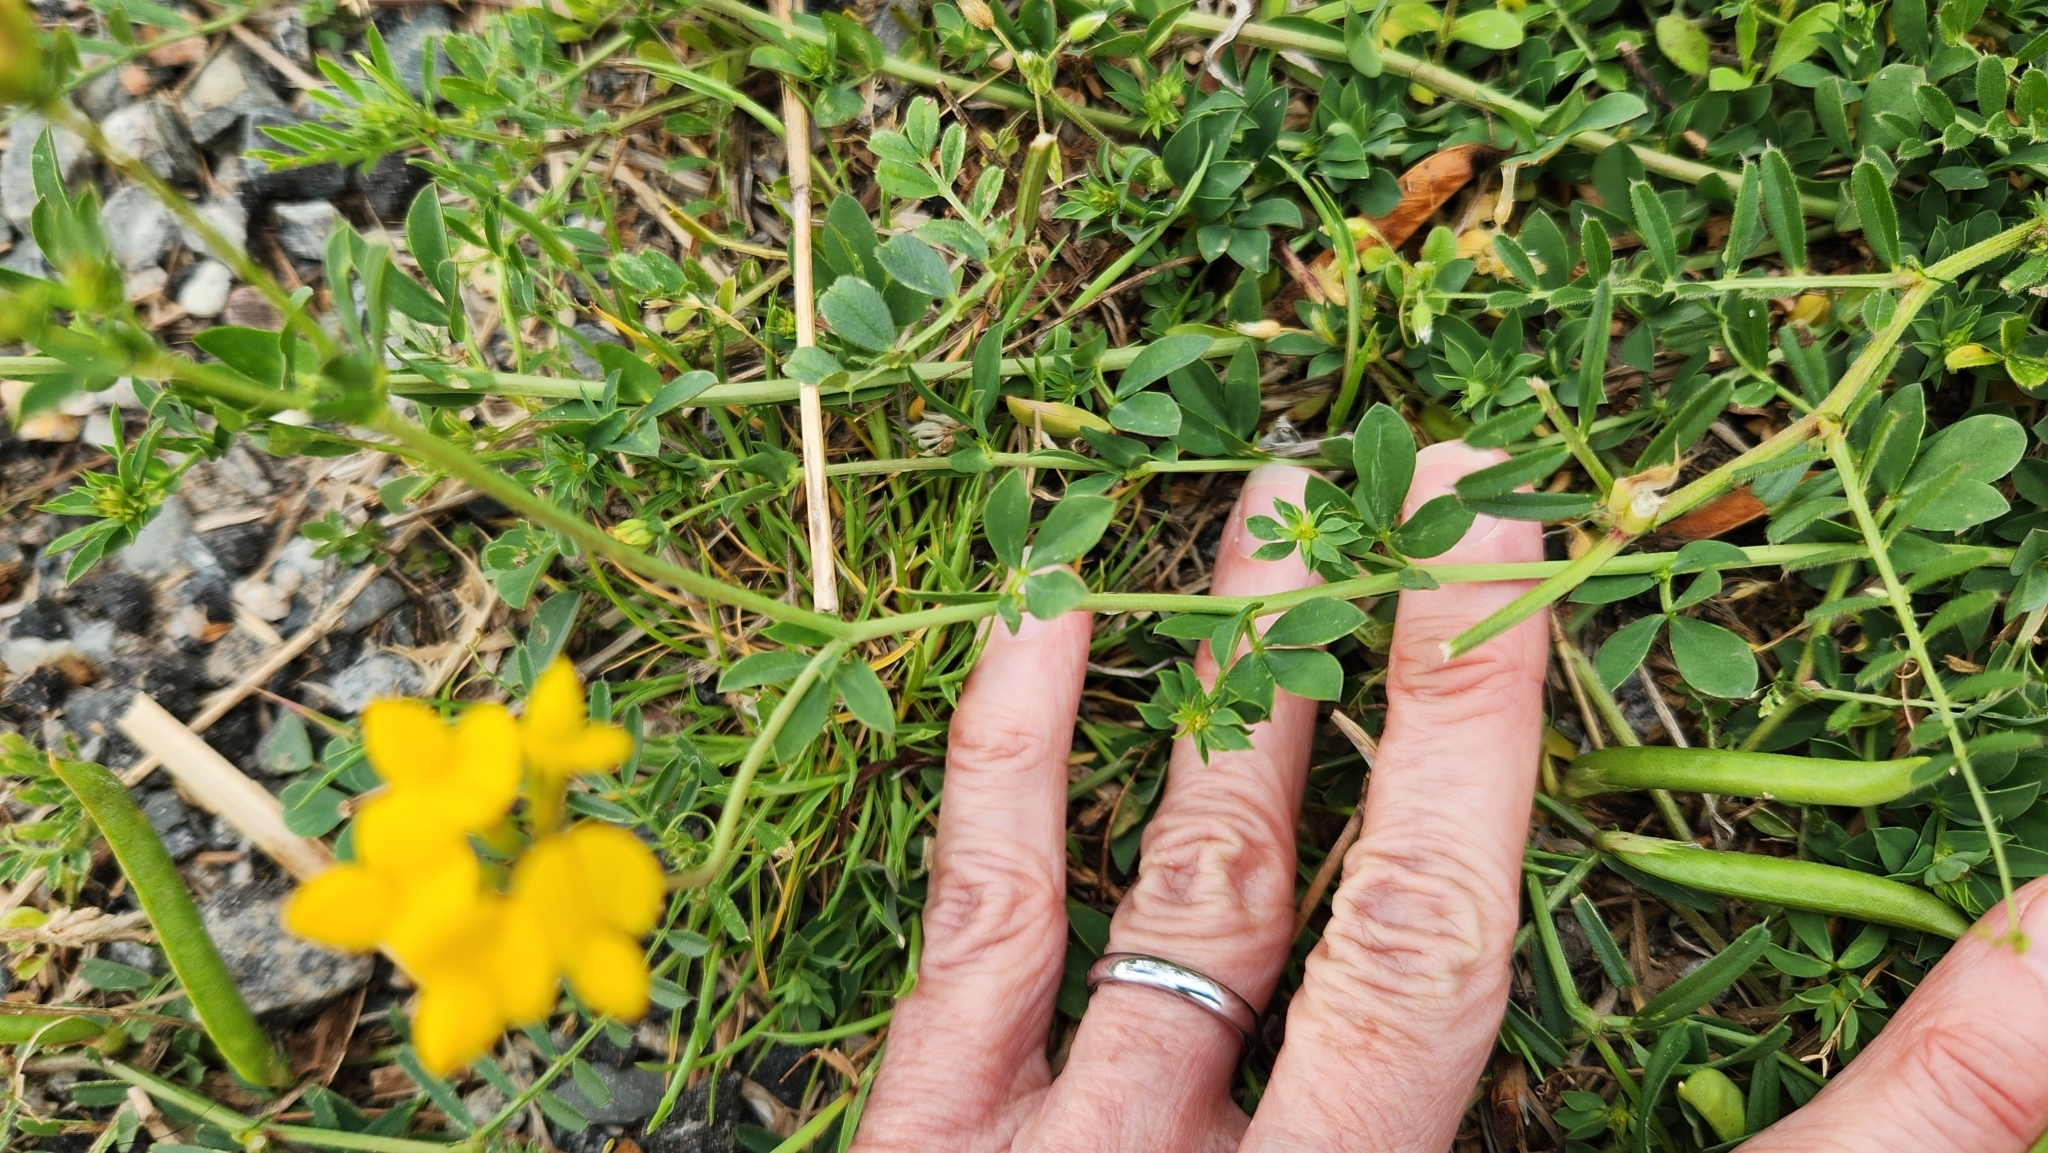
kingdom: Plantae
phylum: Tracheophyta
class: Magnoliopsida
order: Fabales
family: Fabaceae
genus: Lotus
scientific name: Lotus corniculatus
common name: Common bird's-foot-trefoil
